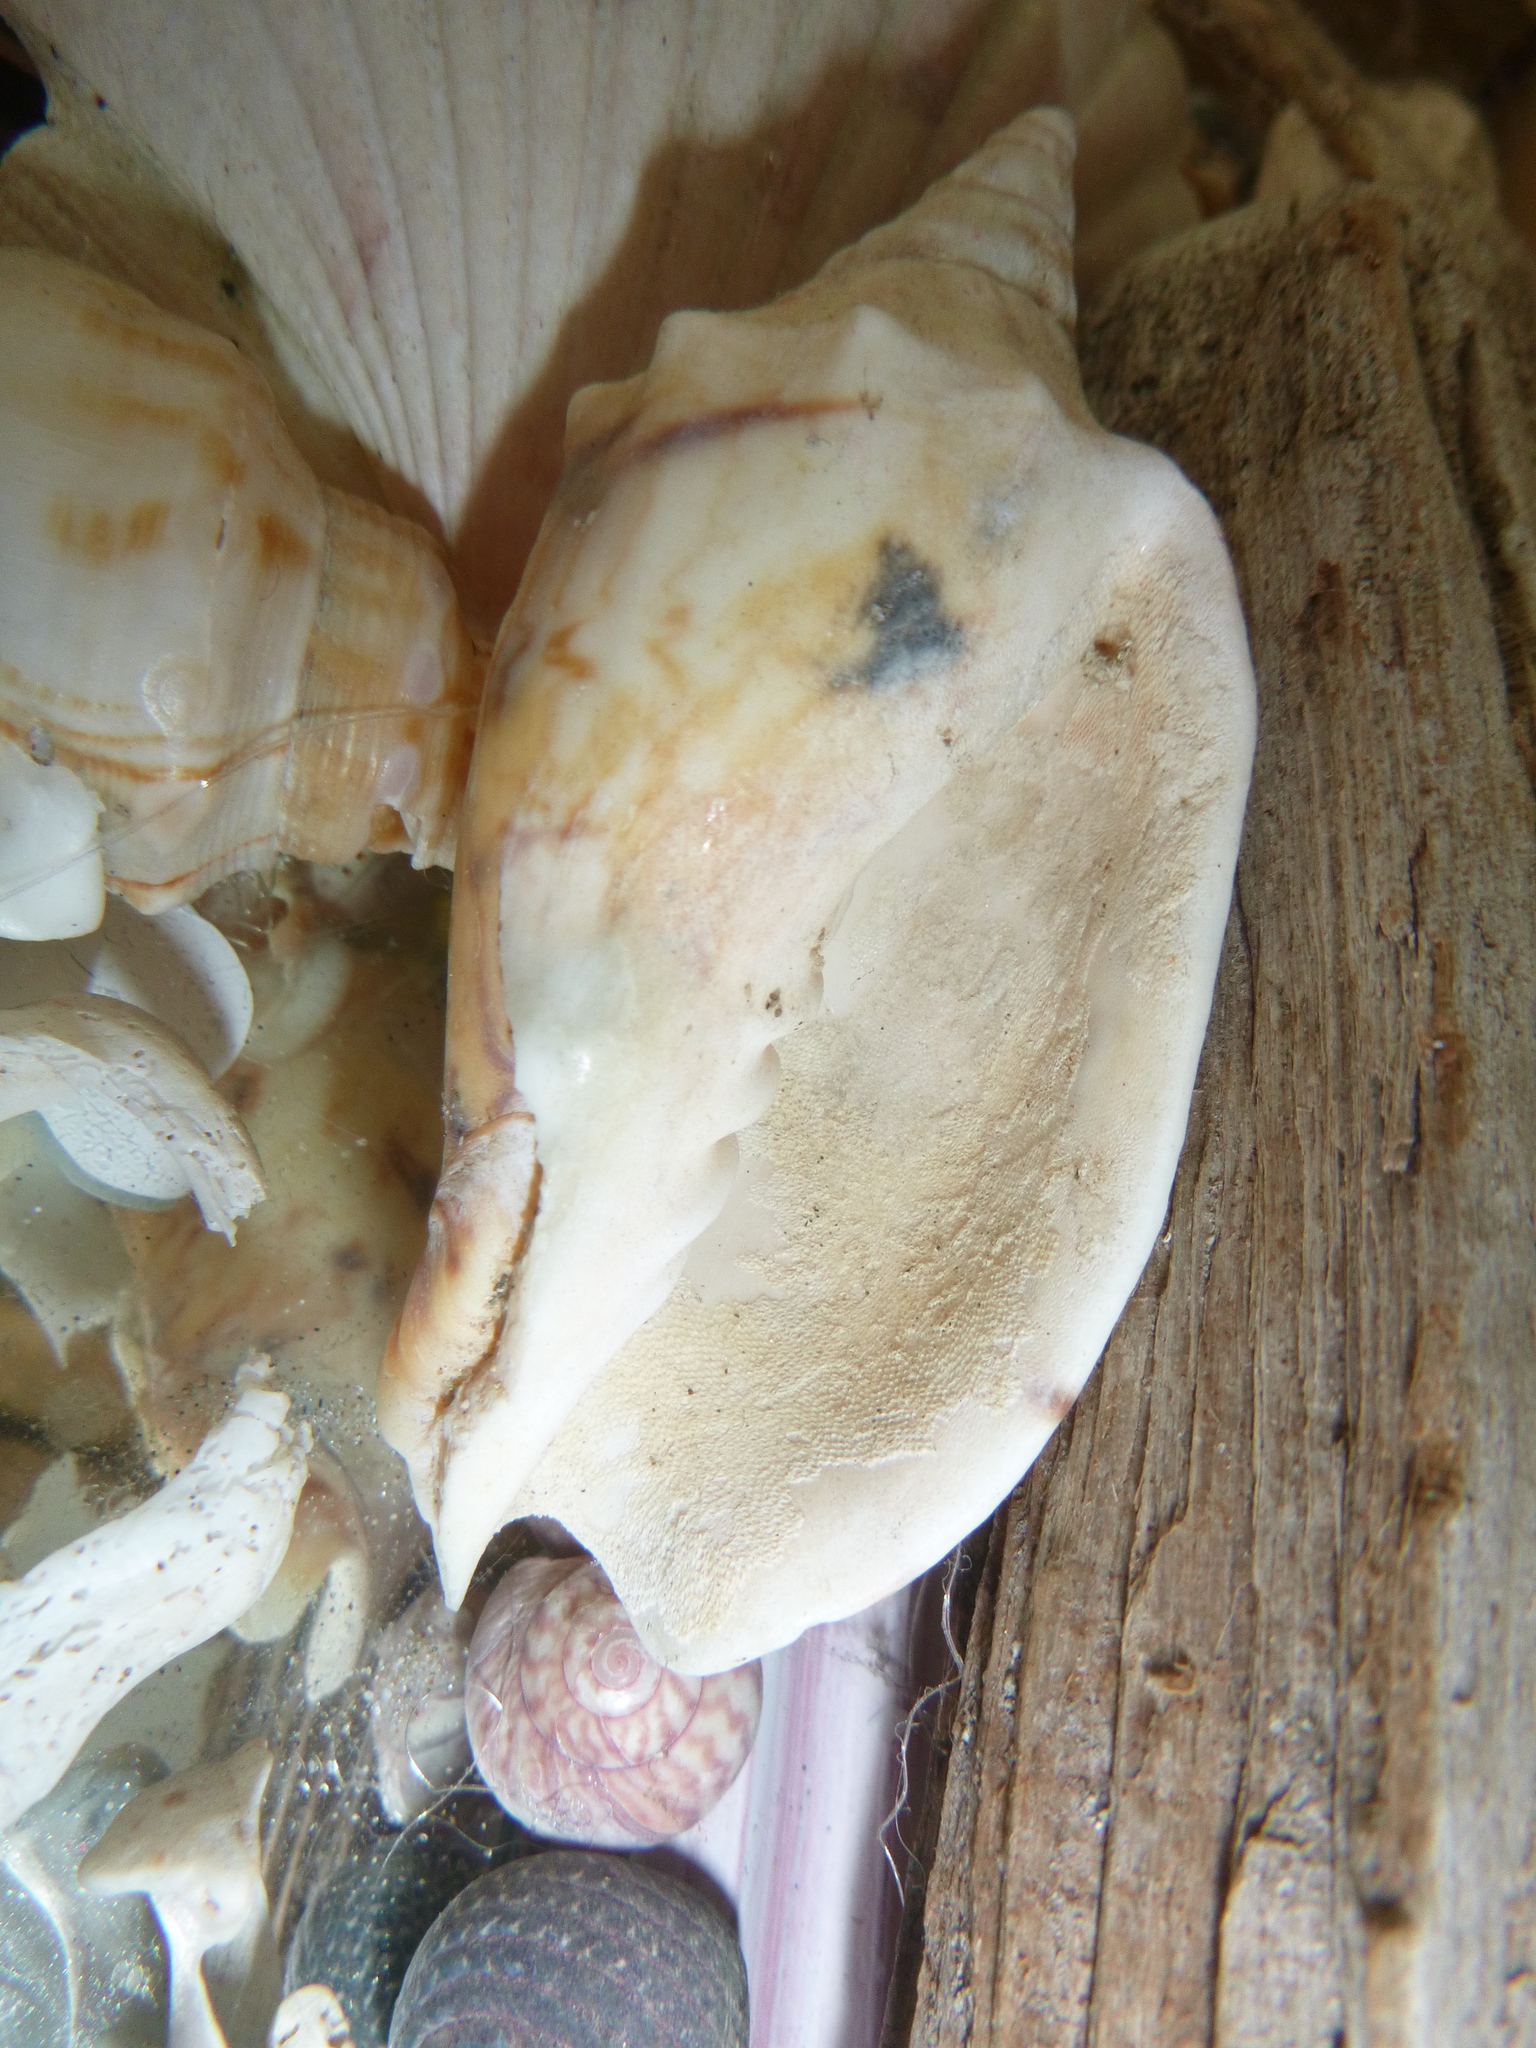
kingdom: Animalia
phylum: Mollusca
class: Gastropoda
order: Neogastropoda
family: Volutidae
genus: Alcithoe
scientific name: Alcithoe arabica
